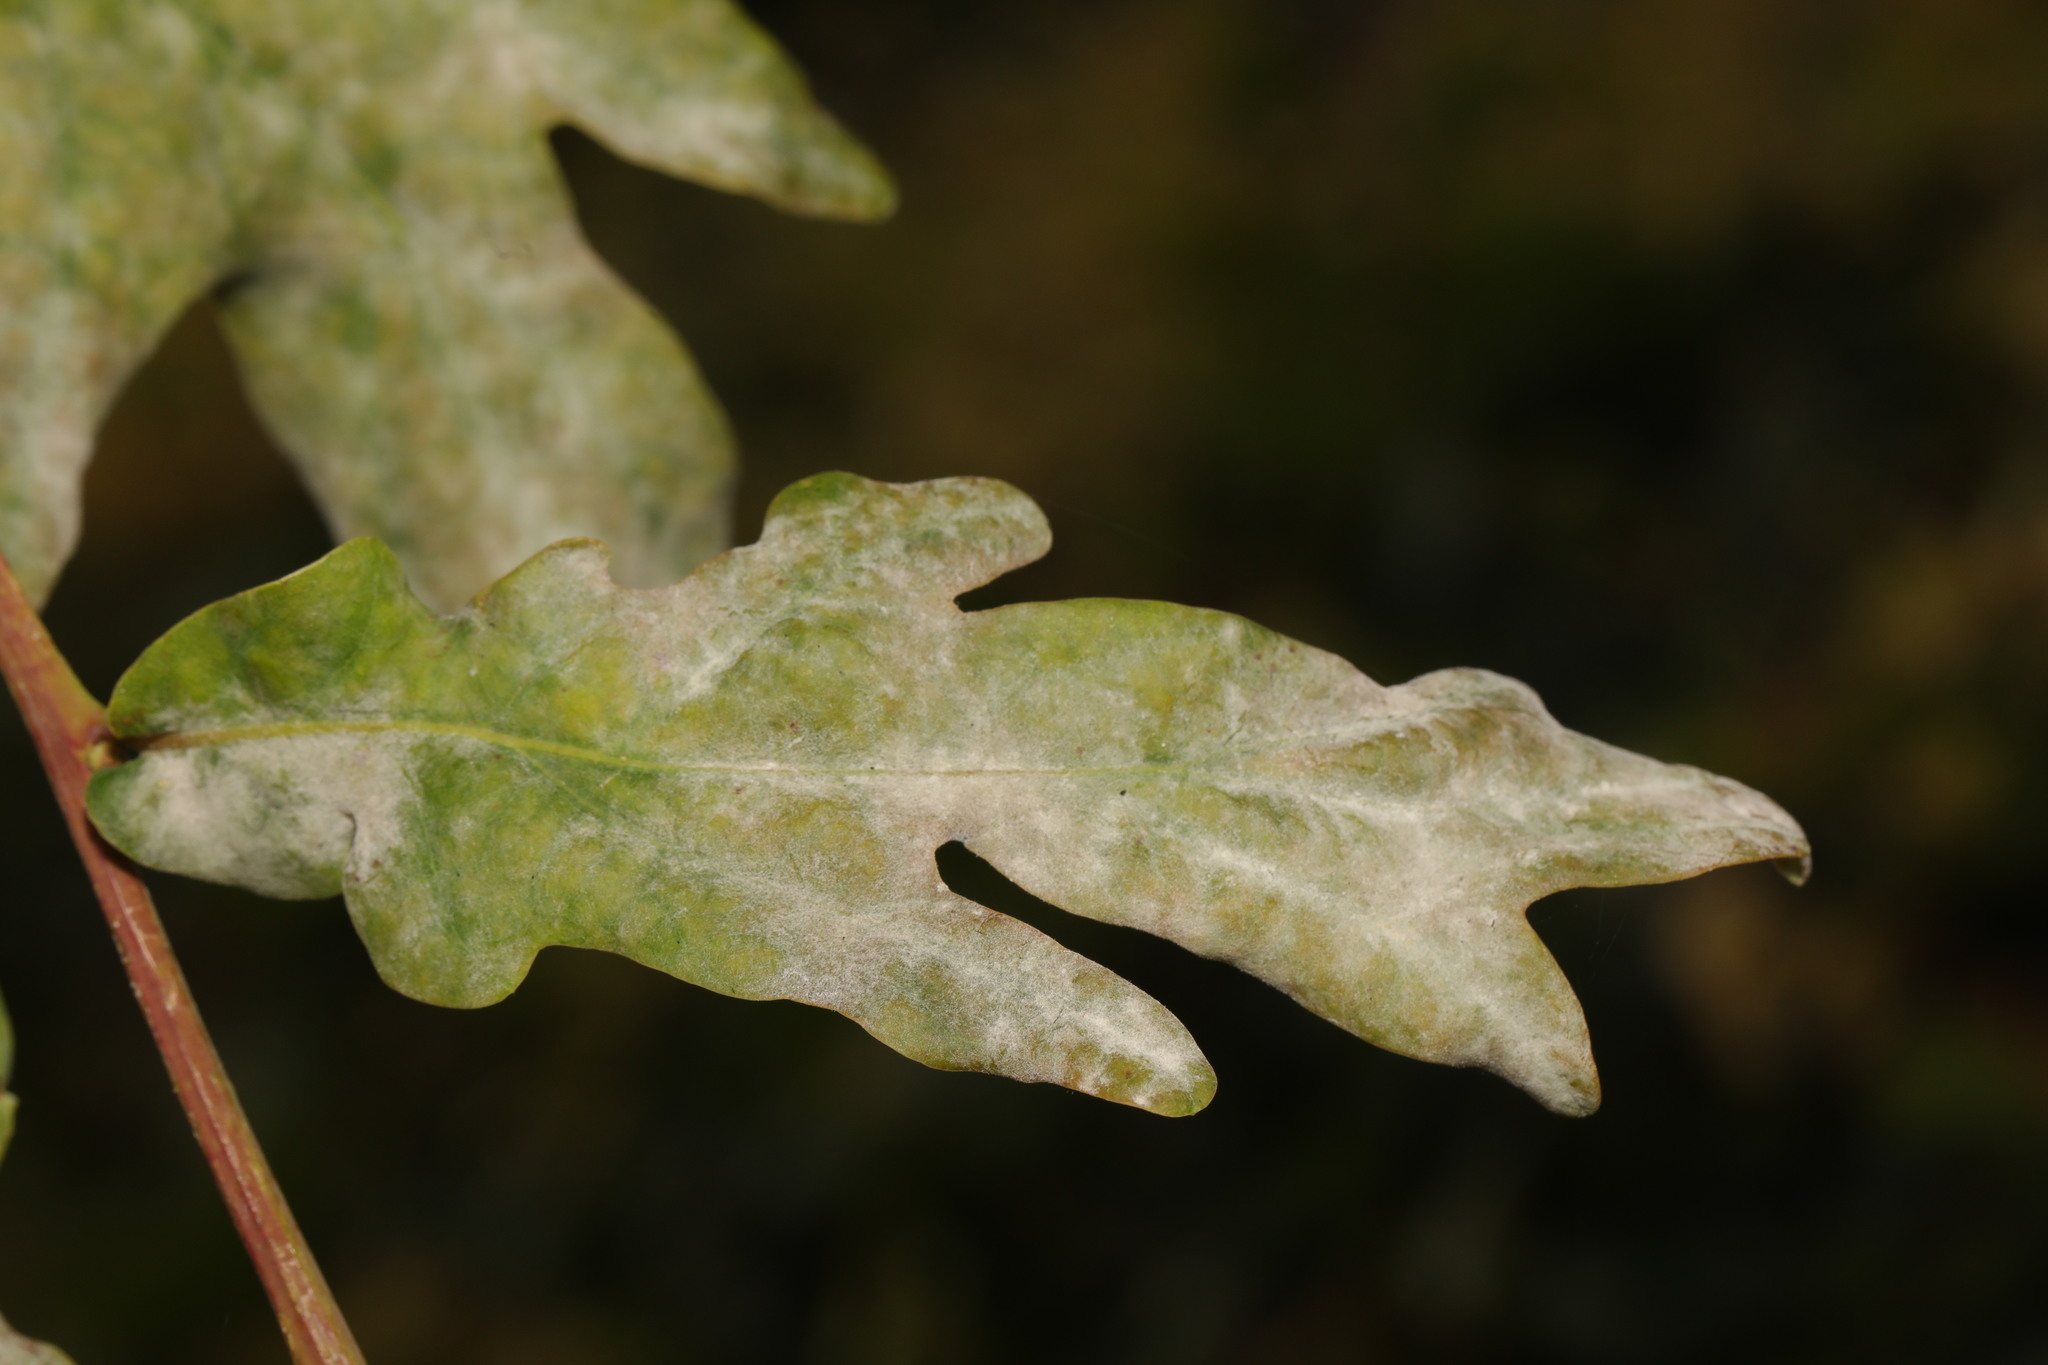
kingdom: Fungi
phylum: Ascomycota
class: Leotiomycetes
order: Helotiales
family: Erysiphaceae
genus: Erysiphe
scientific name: Erysiphe alphitoides
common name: Oak mildew
